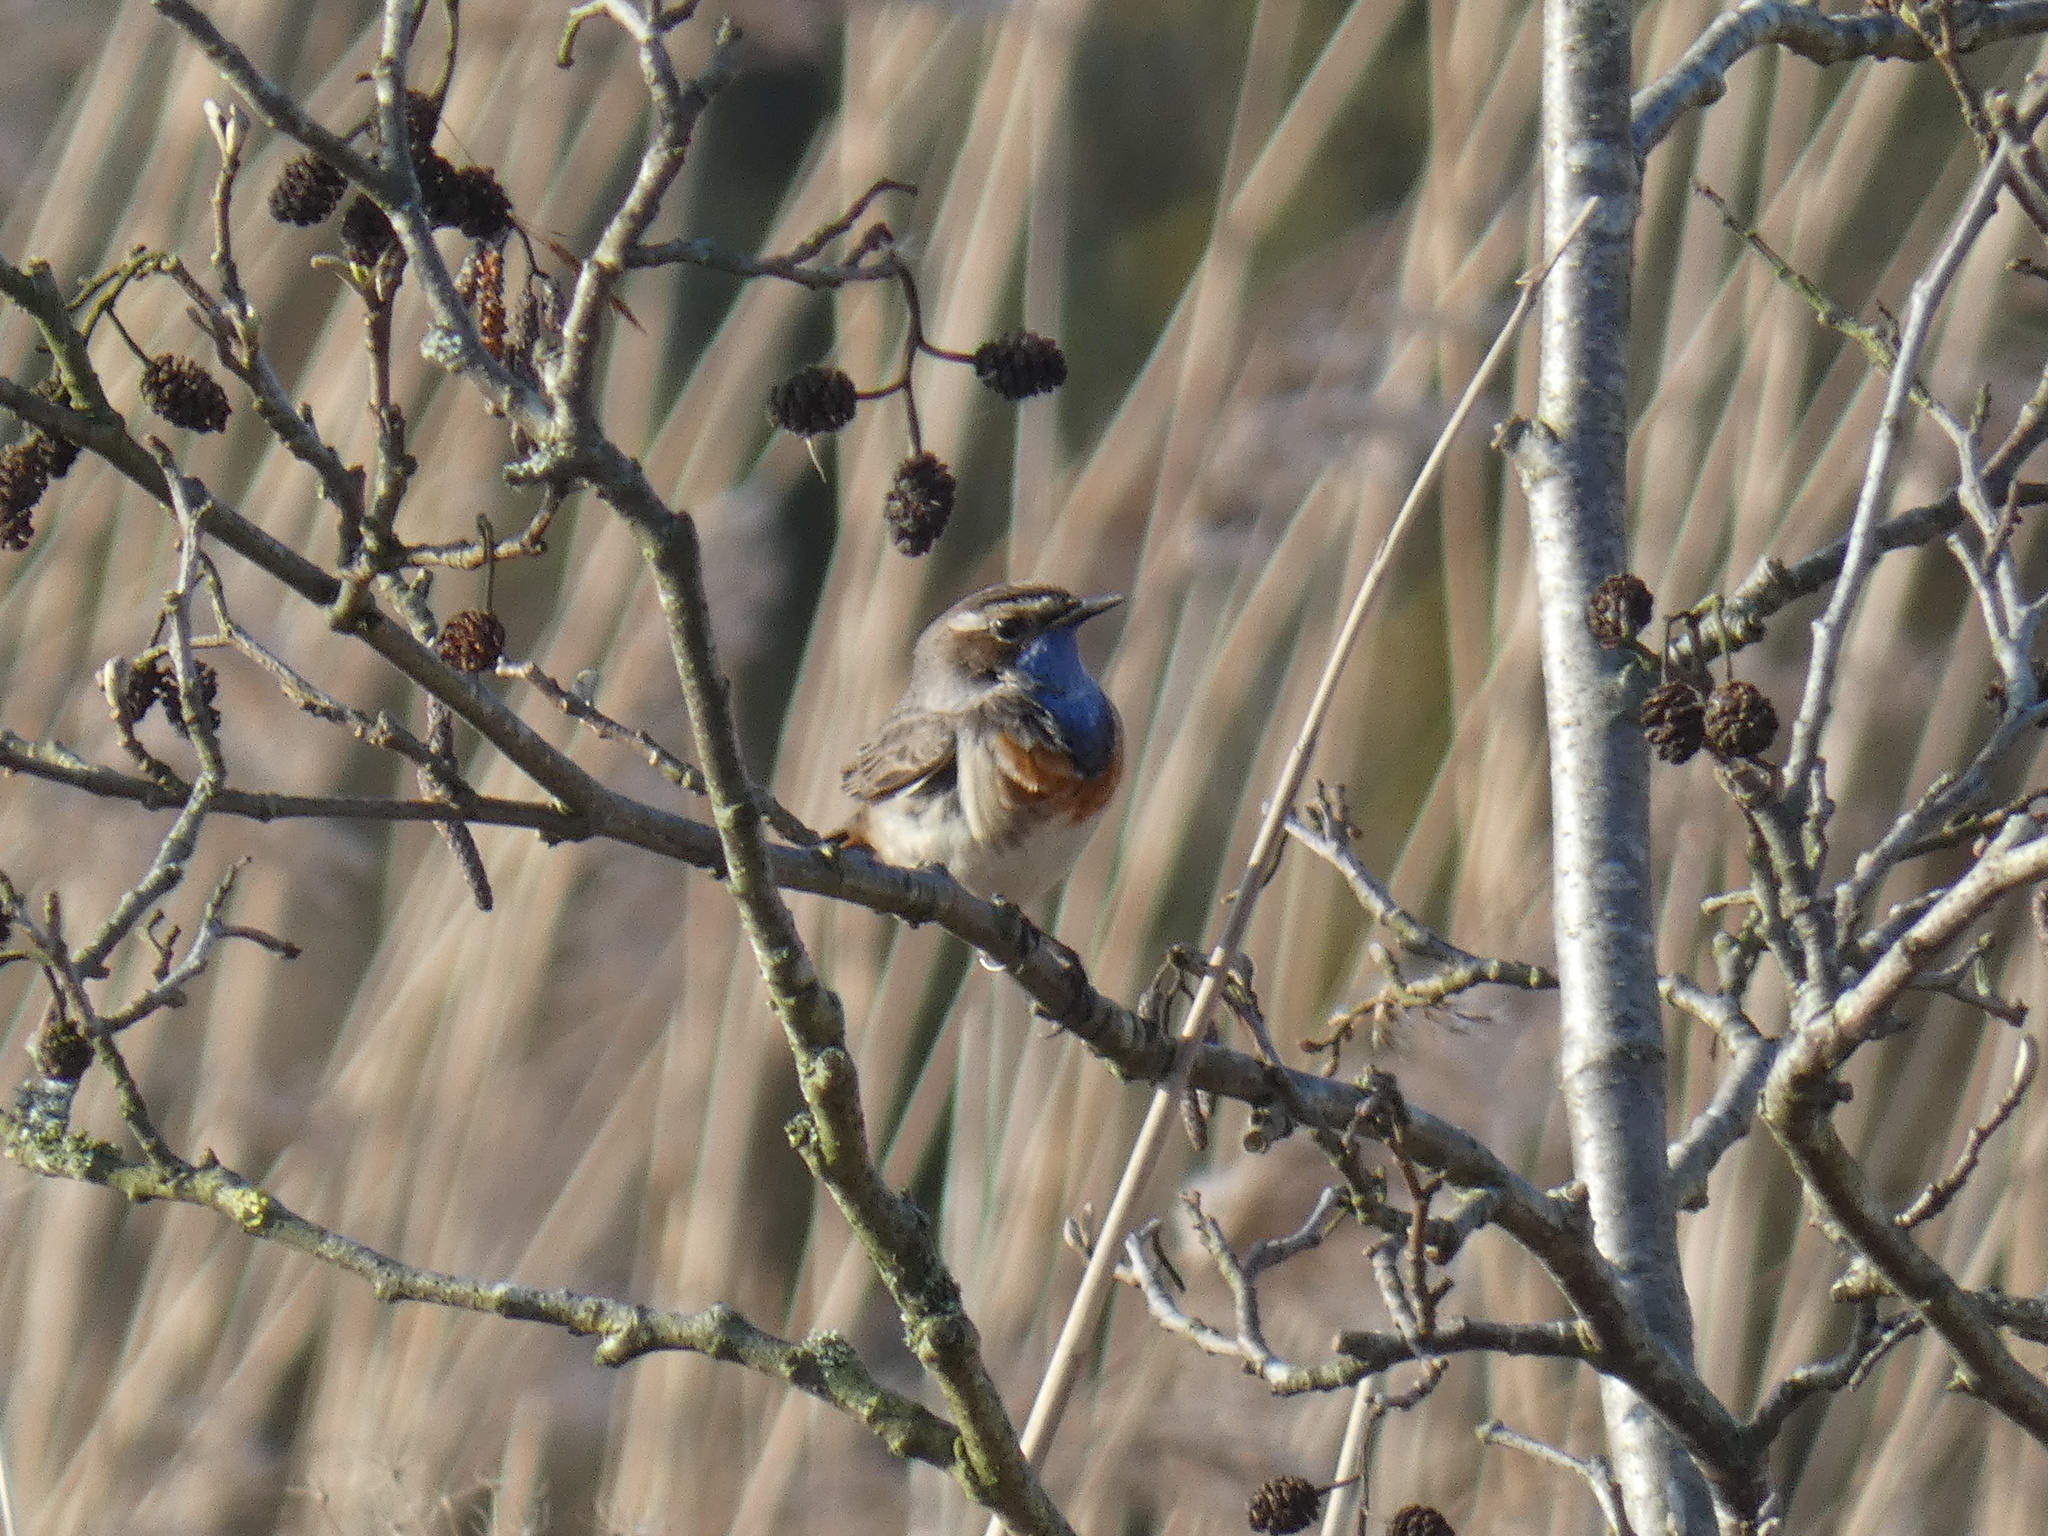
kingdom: Animalia
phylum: Chordata
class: Aves
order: Passeriformes
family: Muscicapidae
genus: Luscinia
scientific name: Luscinia svecica
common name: Bluethroat
